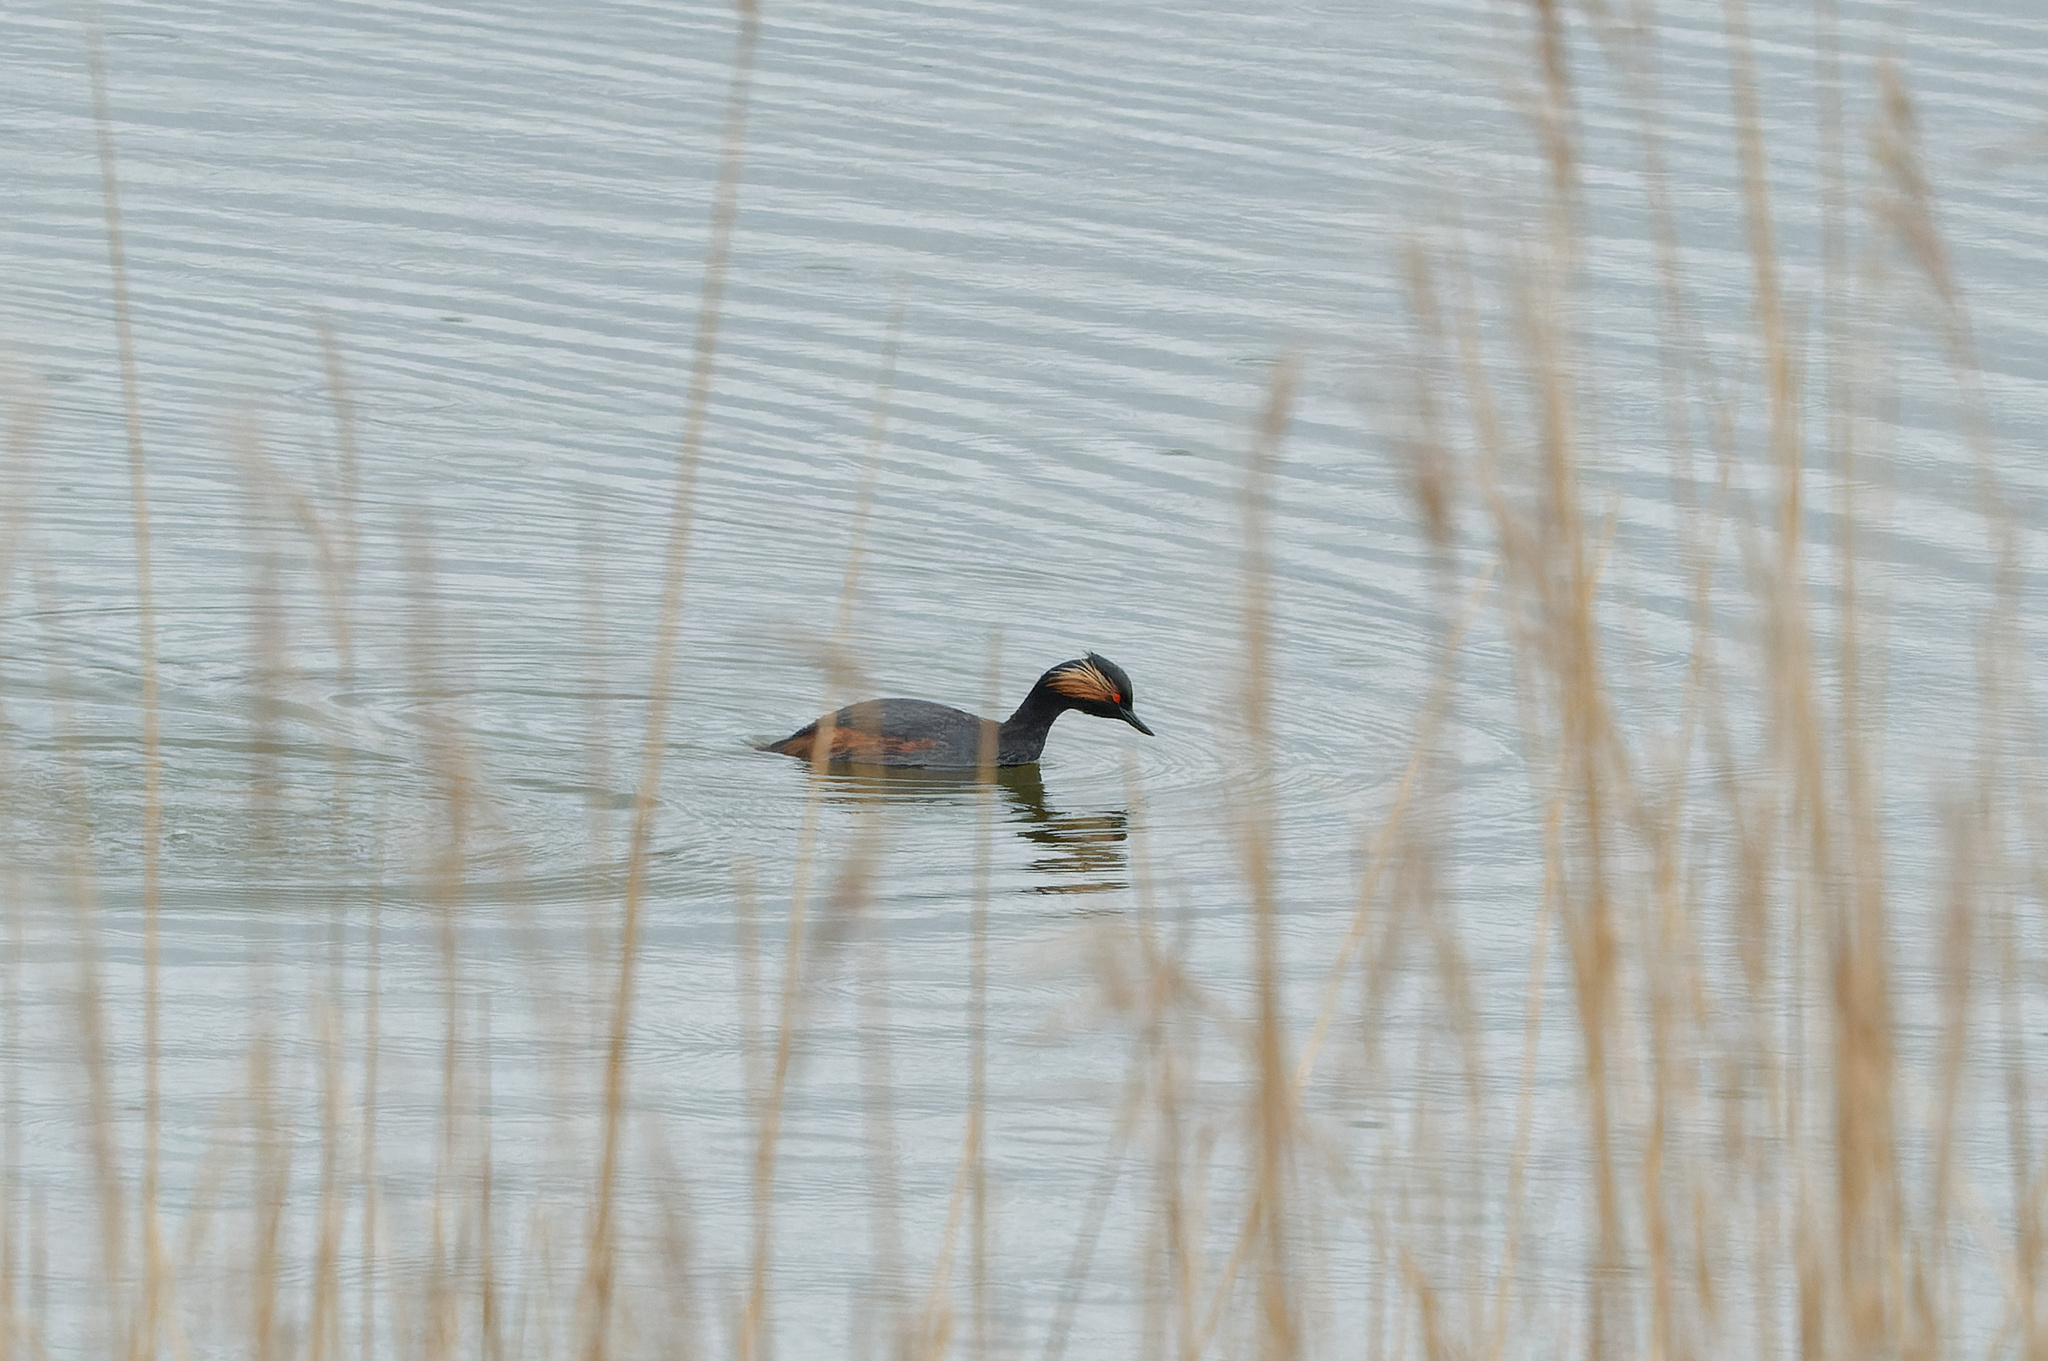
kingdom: Animalia
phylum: Chordata
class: Aves
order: Podicipediformes
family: Podicipedidae
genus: Podiceps
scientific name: Podiceps nigricollis
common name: Black-necked grebe
